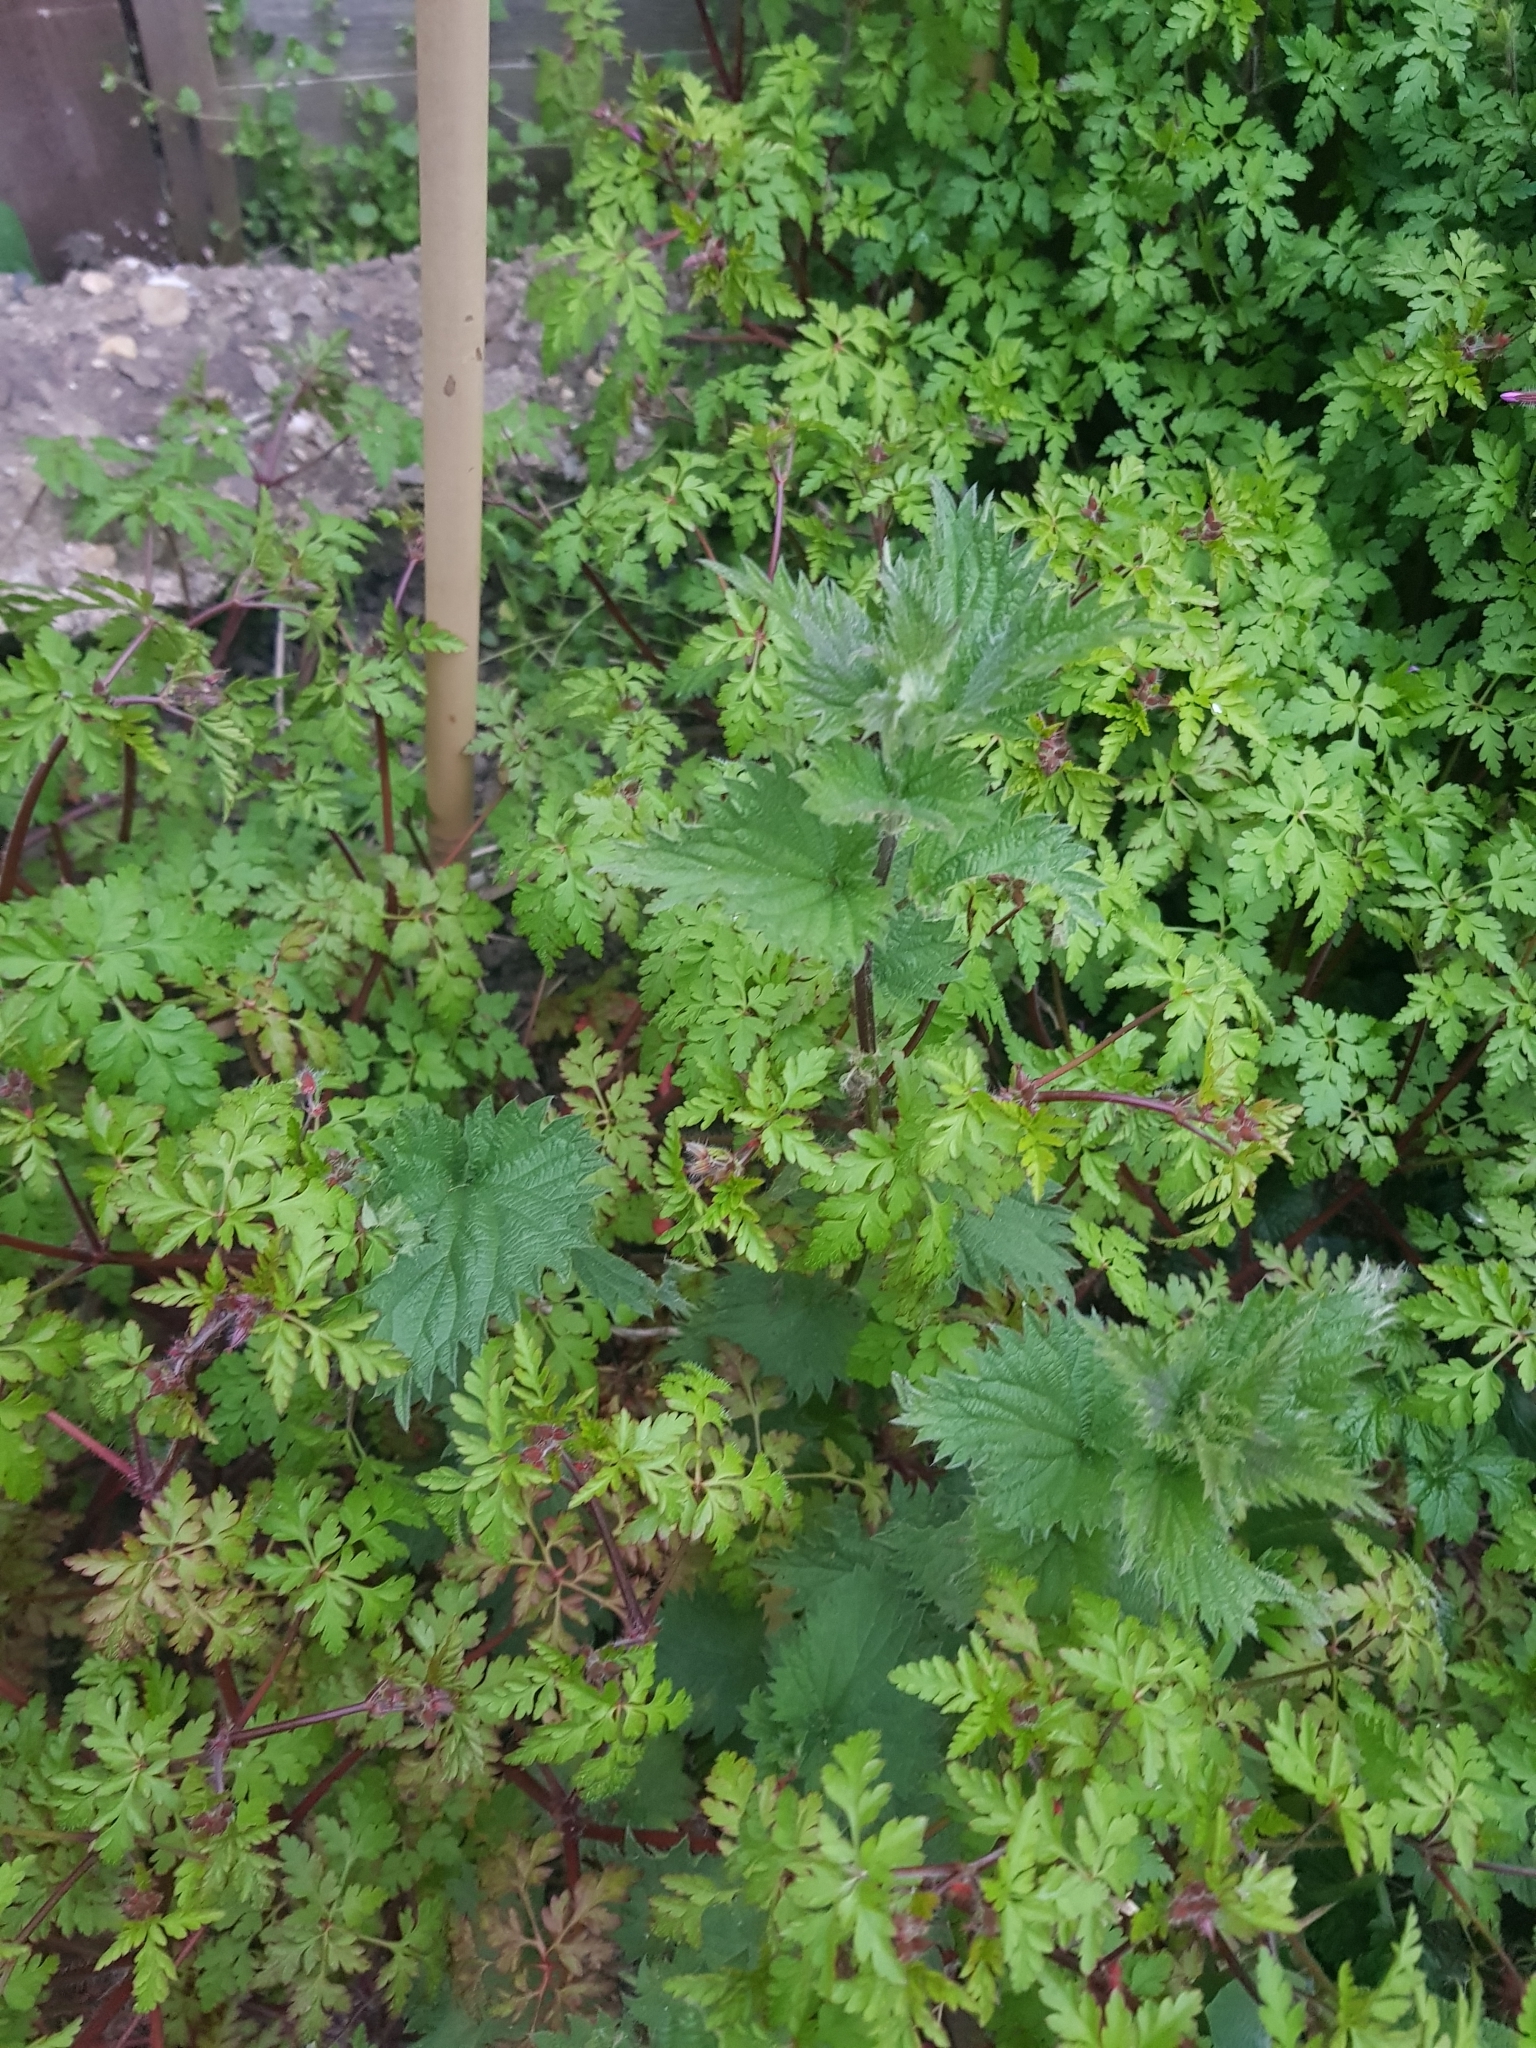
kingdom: Plantae
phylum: Tracheophyta
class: Magnoliopsida
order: Rosales
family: Urticaceae
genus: Urtica
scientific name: Urtica dioica
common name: Common nettle
